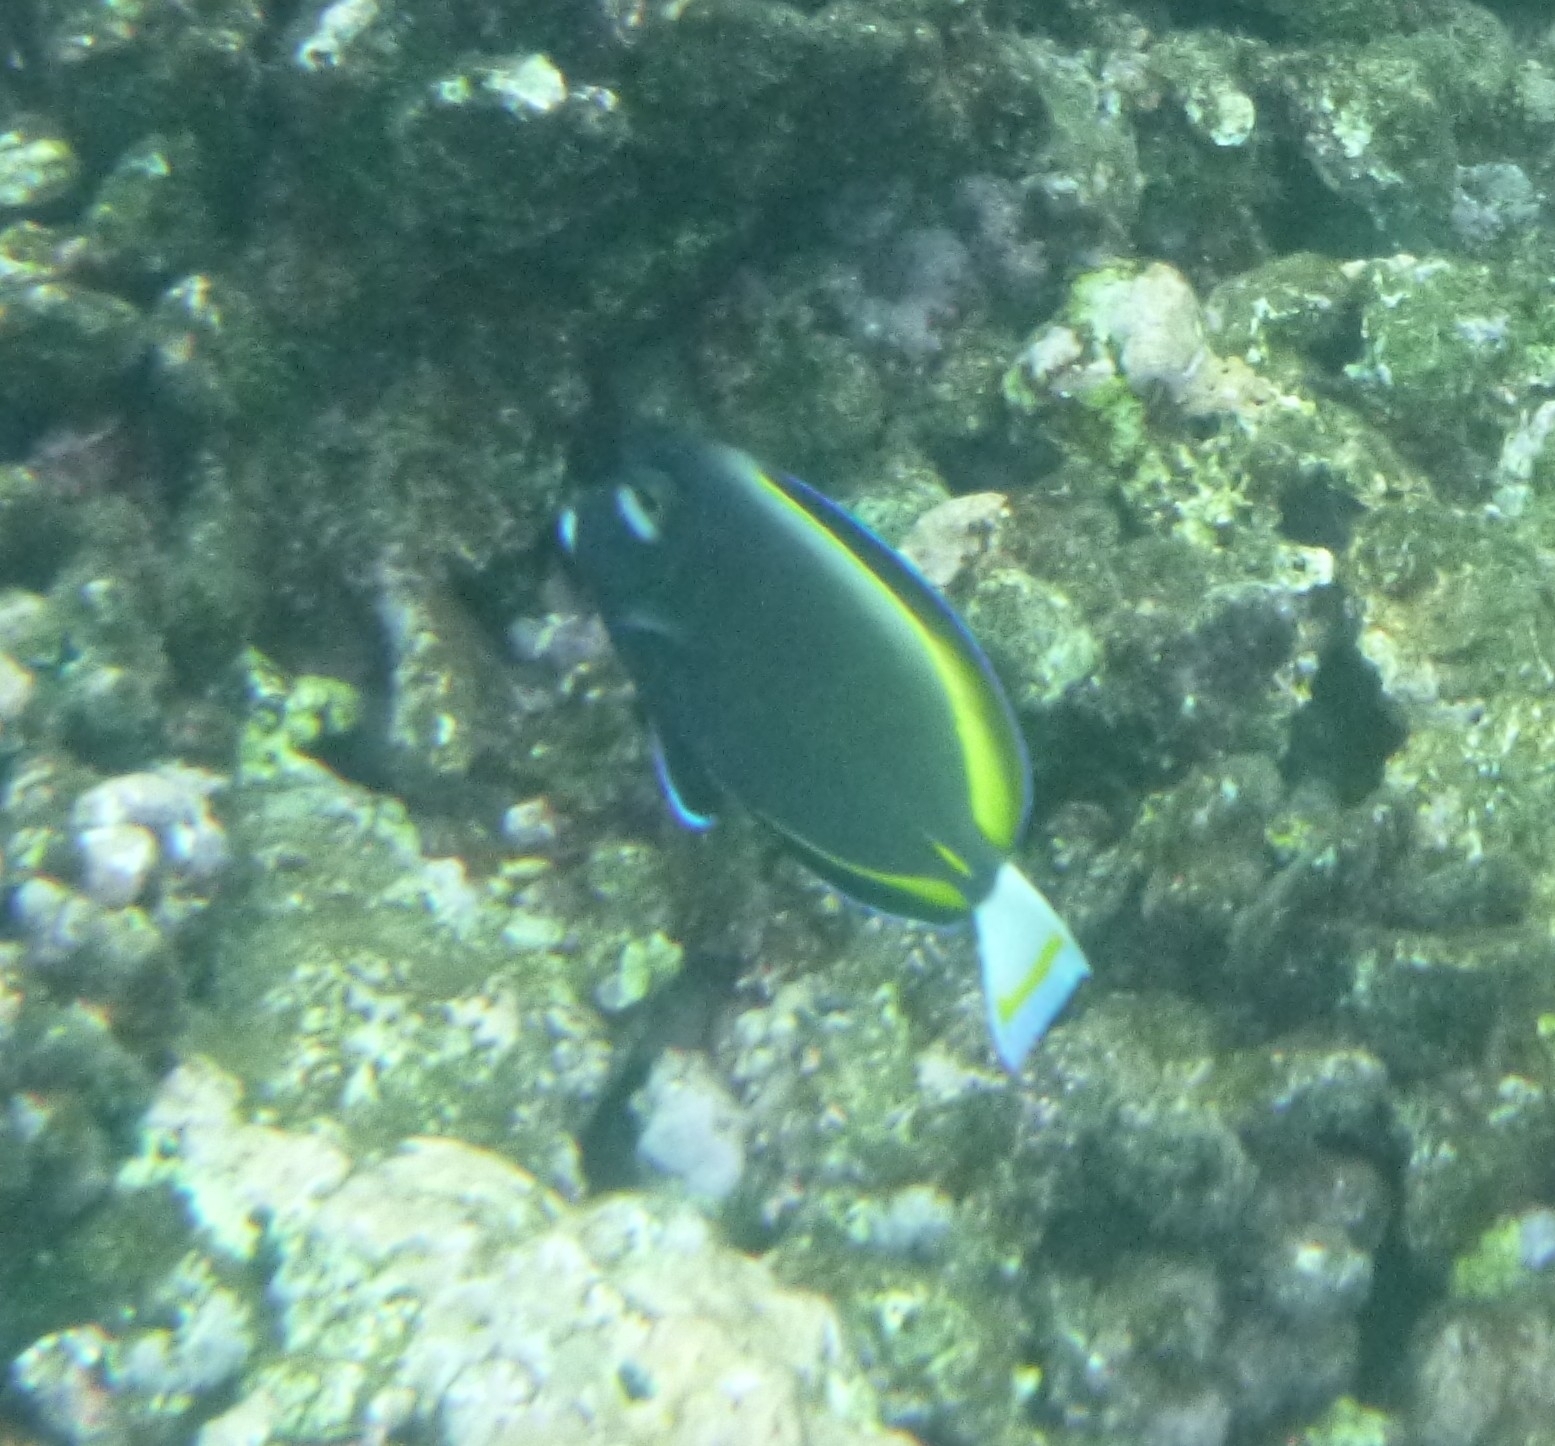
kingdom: Animalia
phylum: Chordata
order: Perciformes
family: Acanthuridae
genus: Acanthurus
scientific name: Acanthurus nigricans
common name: Whitecheek surgeonfish
